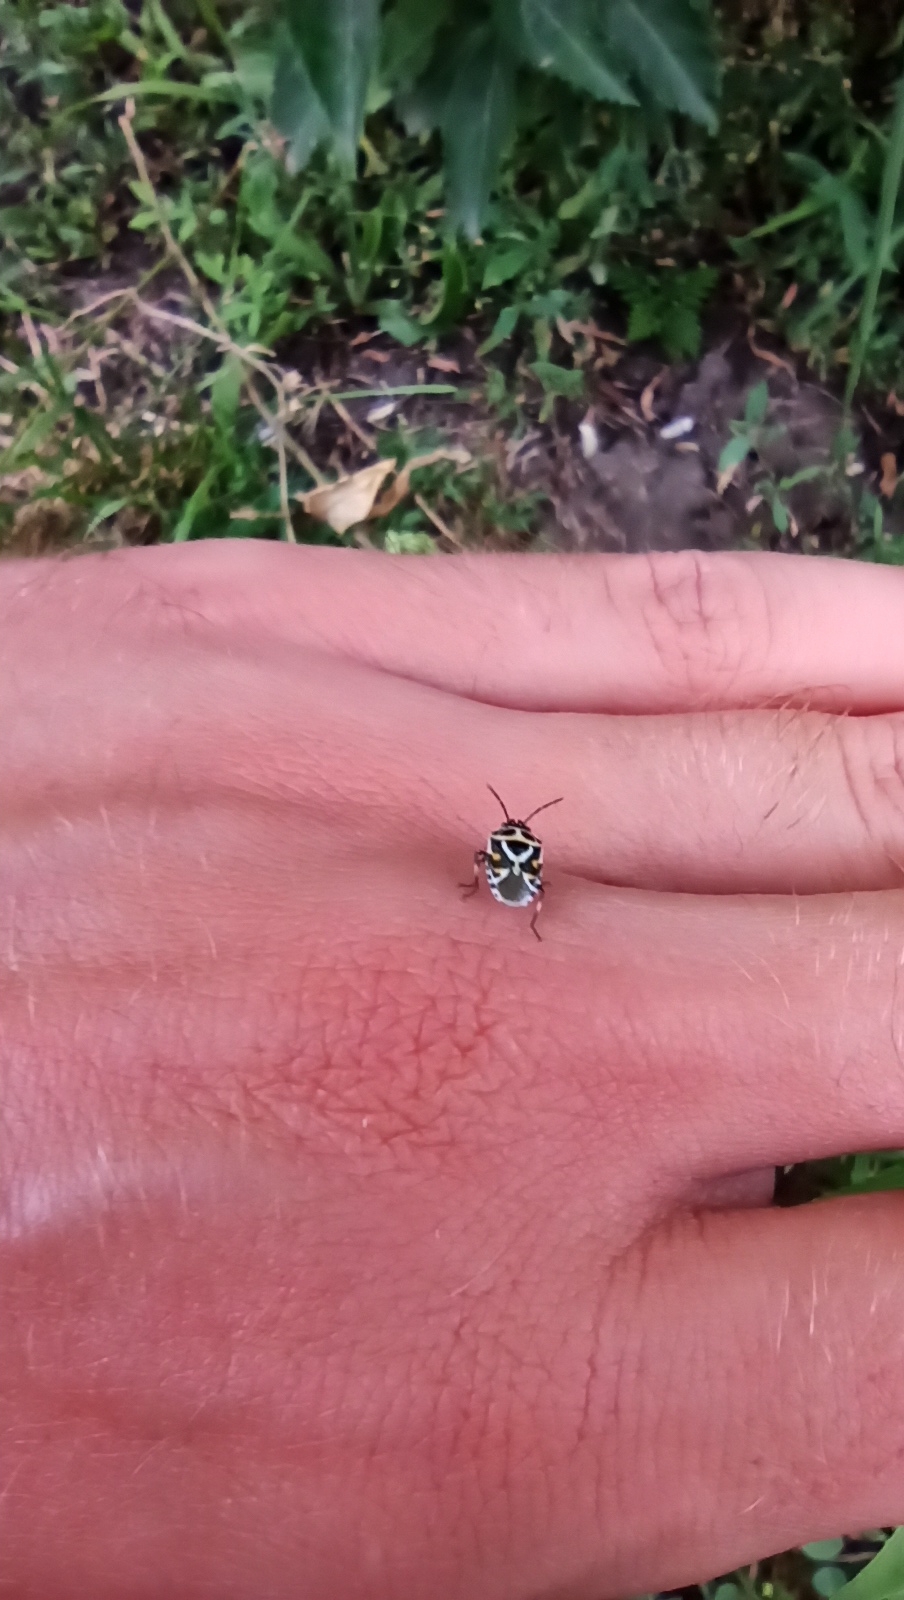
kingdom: Animalia
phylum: Arthropoda
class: Insecta
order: Hemiptera
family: Pentatomidae
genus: Eurydema
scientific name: Eurydema ornata
